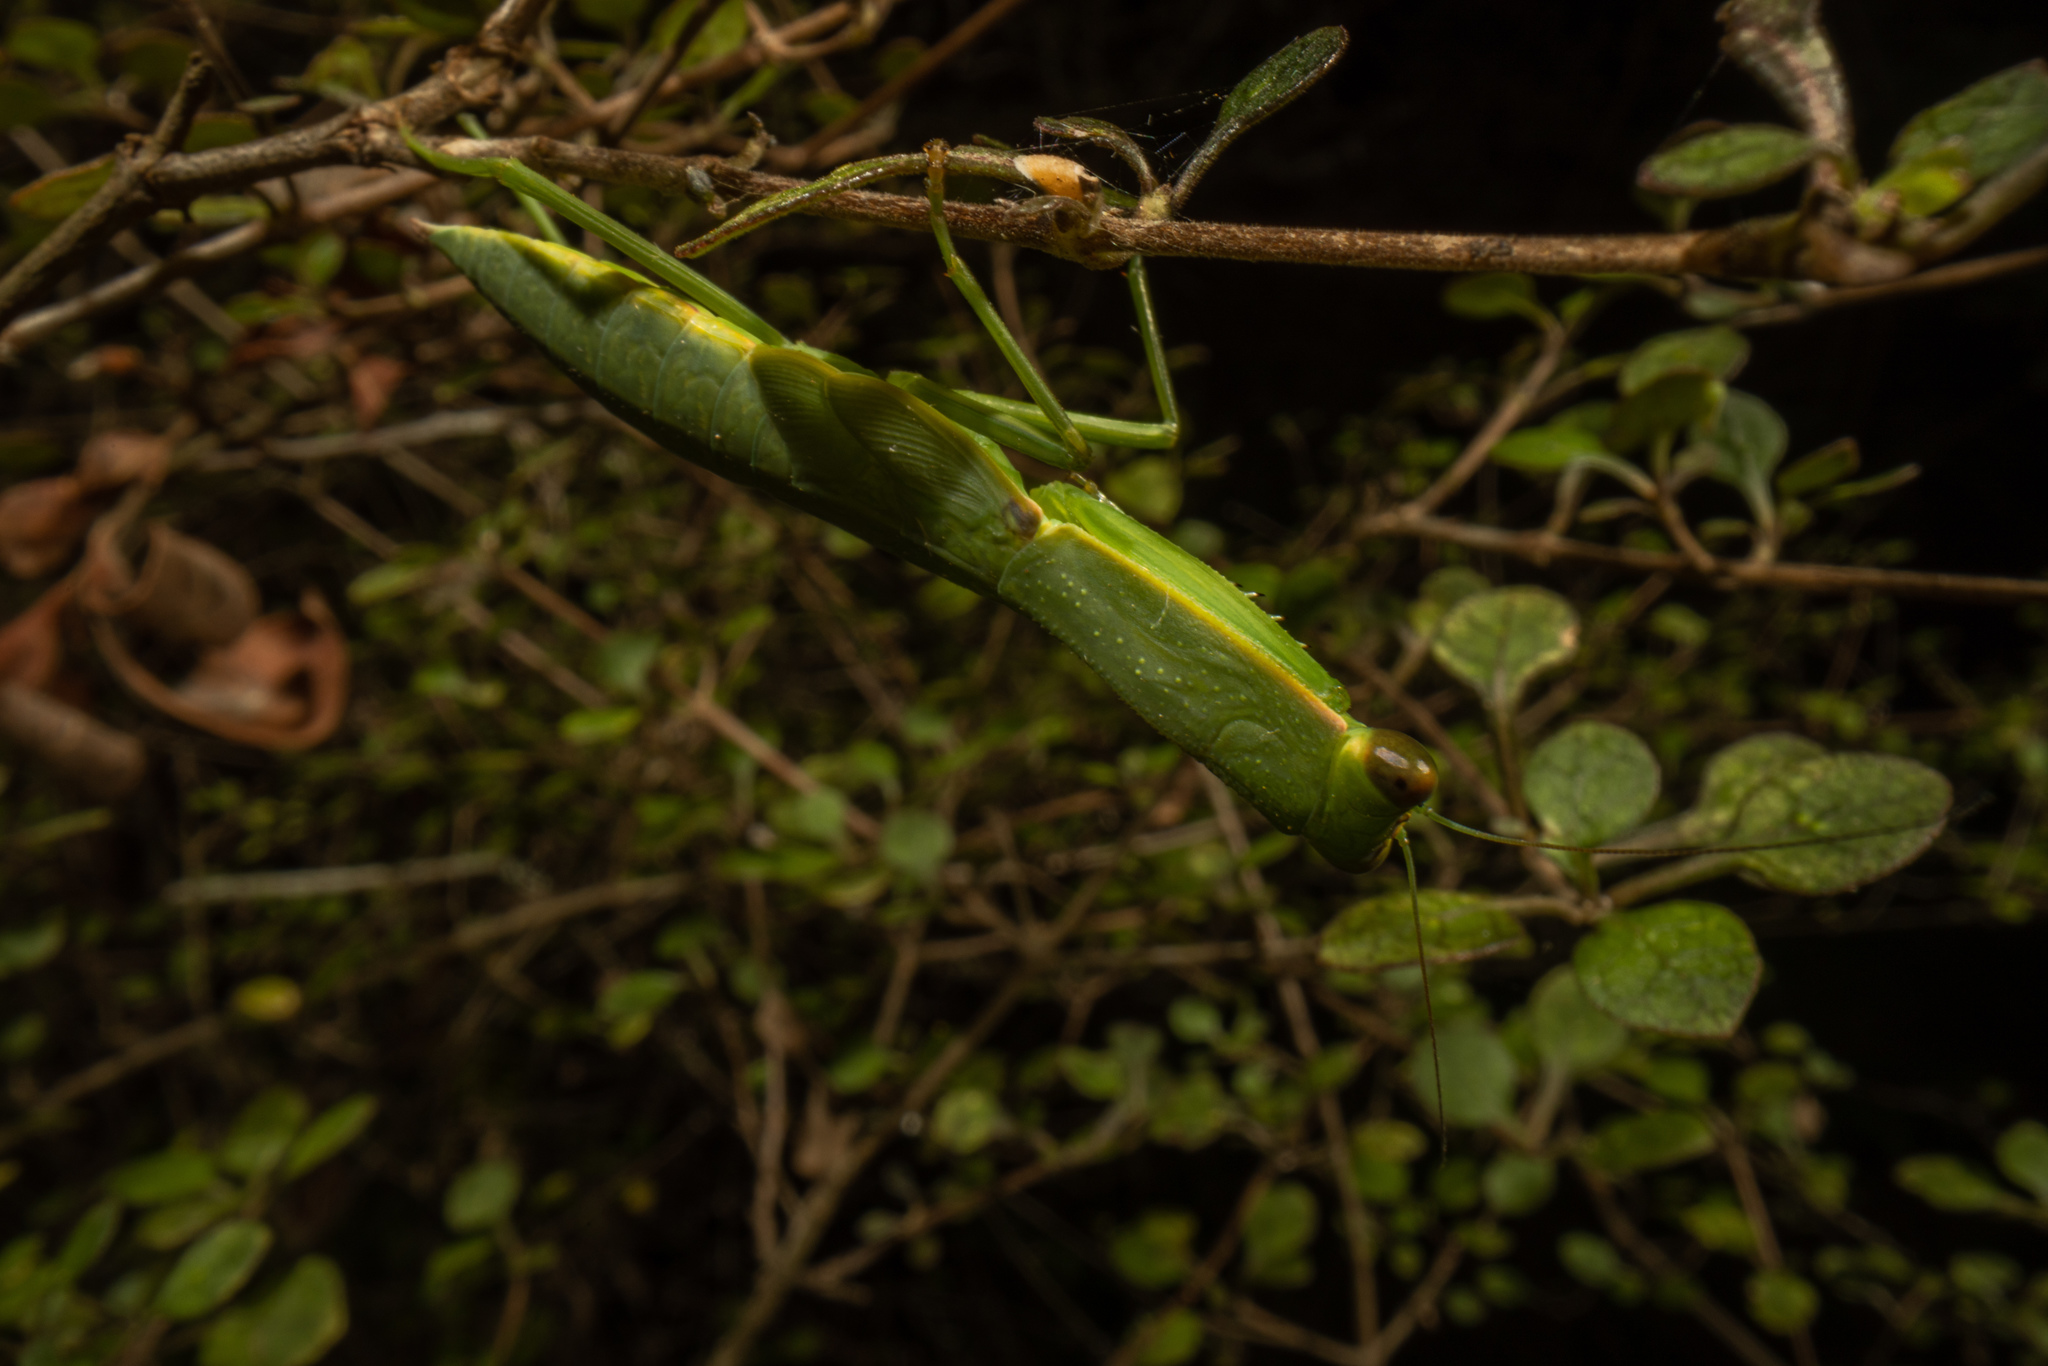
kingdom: Animalia
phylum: Arthropoda
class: Insecta
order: Mantodea
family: Mantidae
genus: Orthodera
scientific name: Orthodera novaezealandiae
